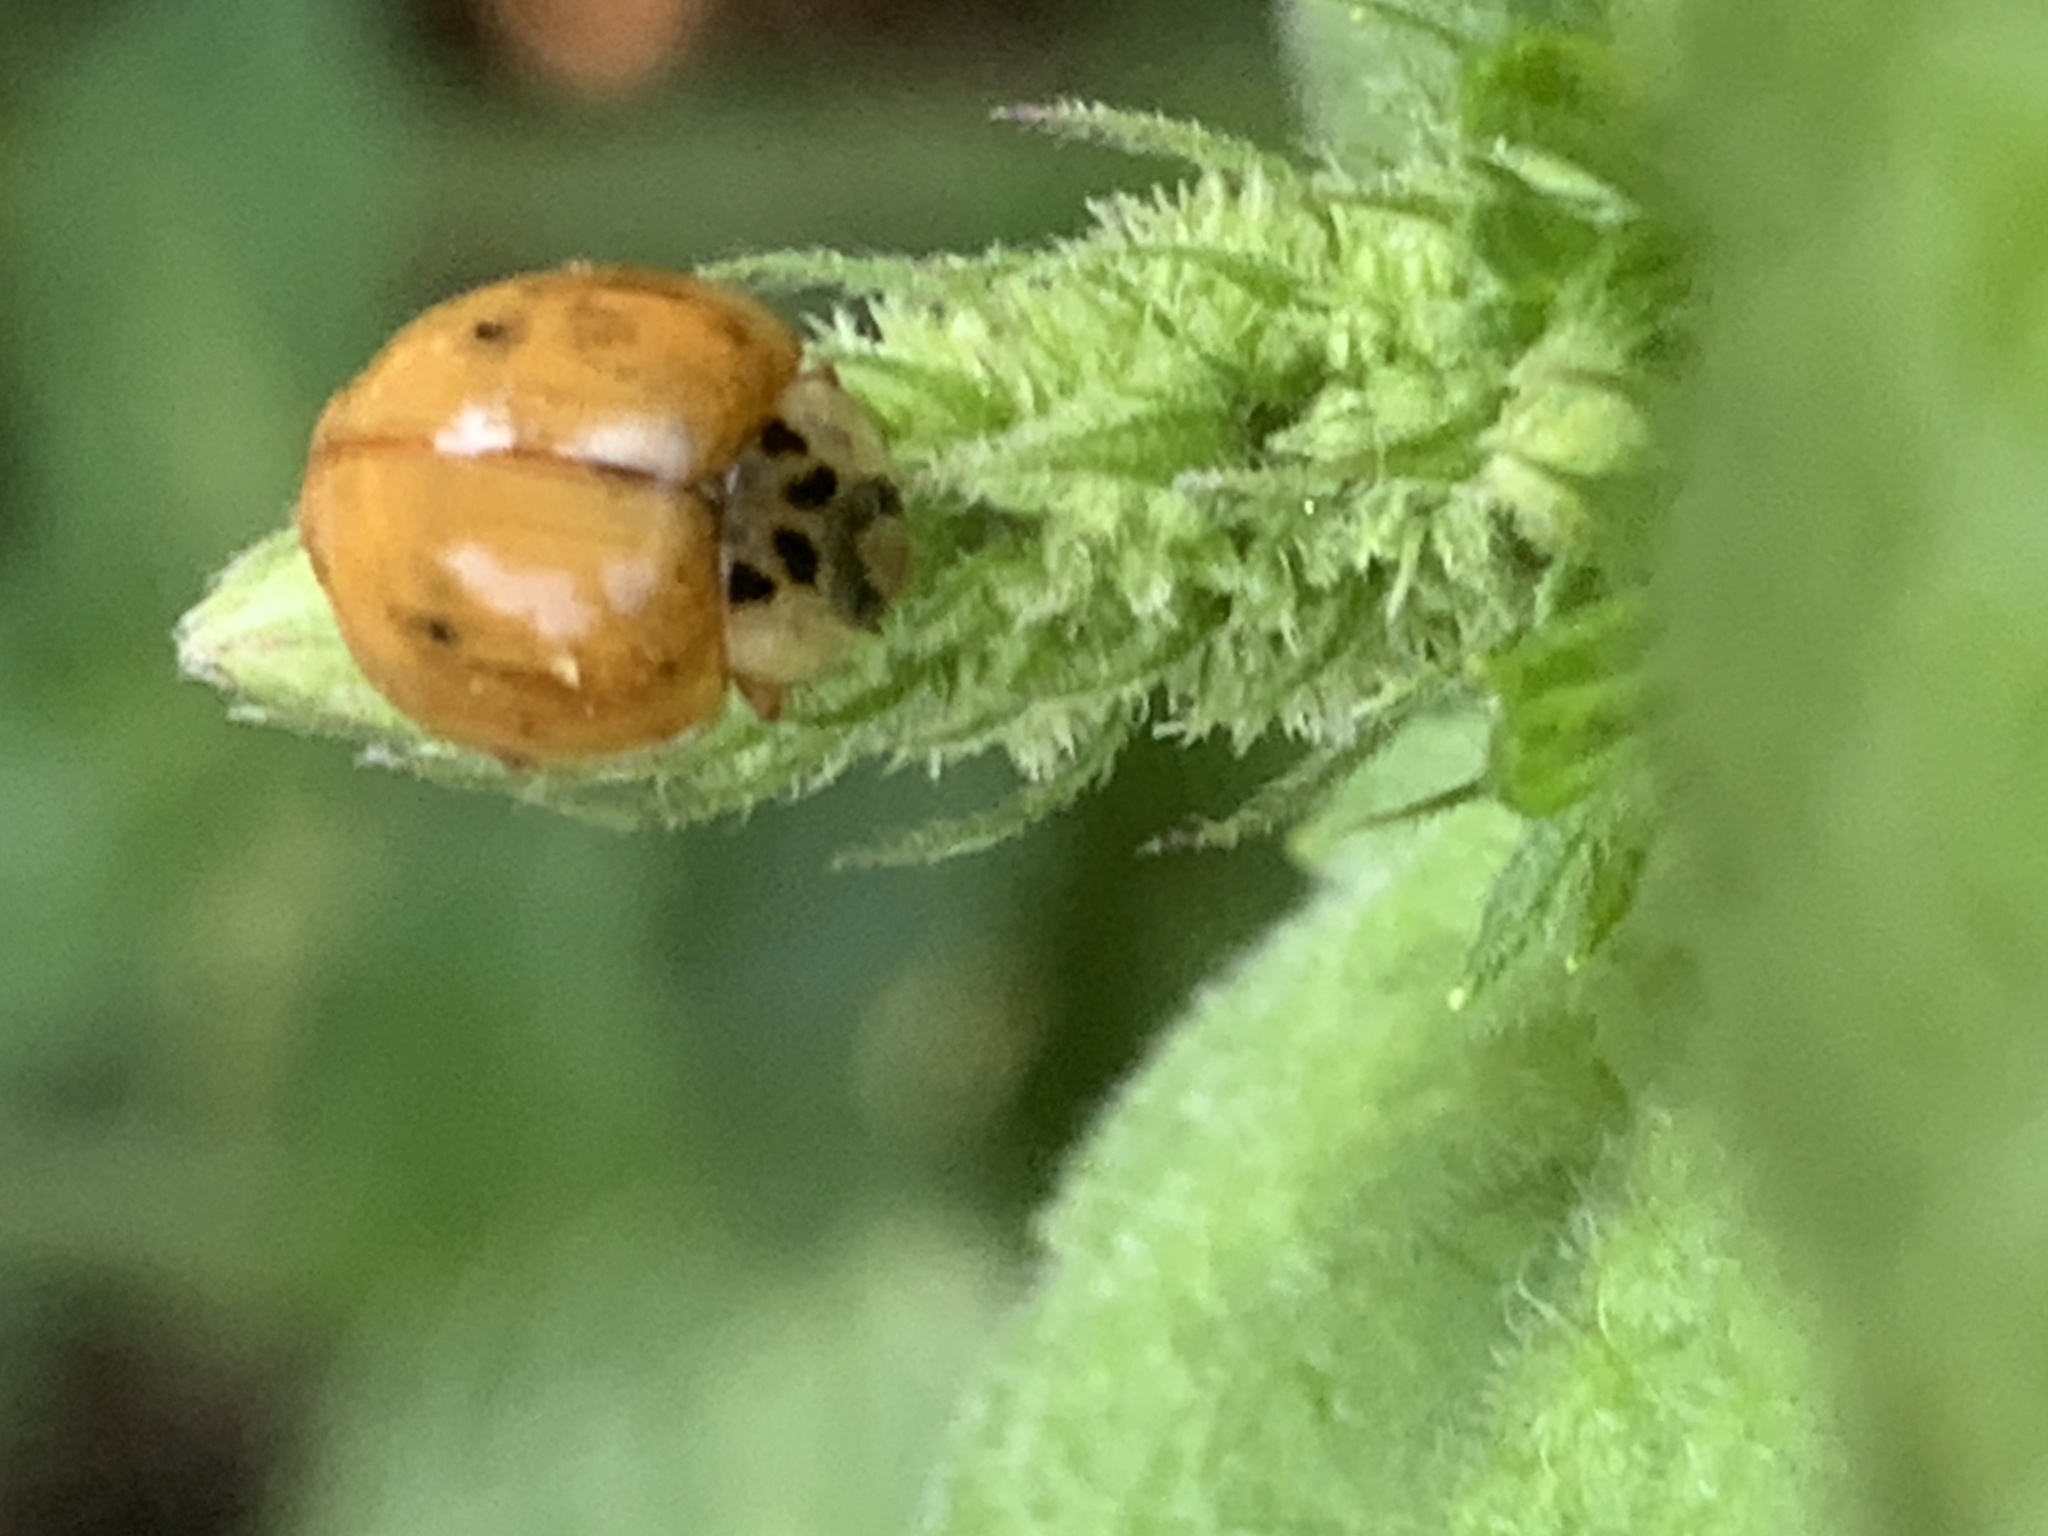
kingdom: Animalia
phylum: Arthropoda
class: Insecta
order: Coleoptera
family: Coccinellidae
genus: Harmonia
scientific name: Harmonia axyridis
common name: Harlequin ladybird
